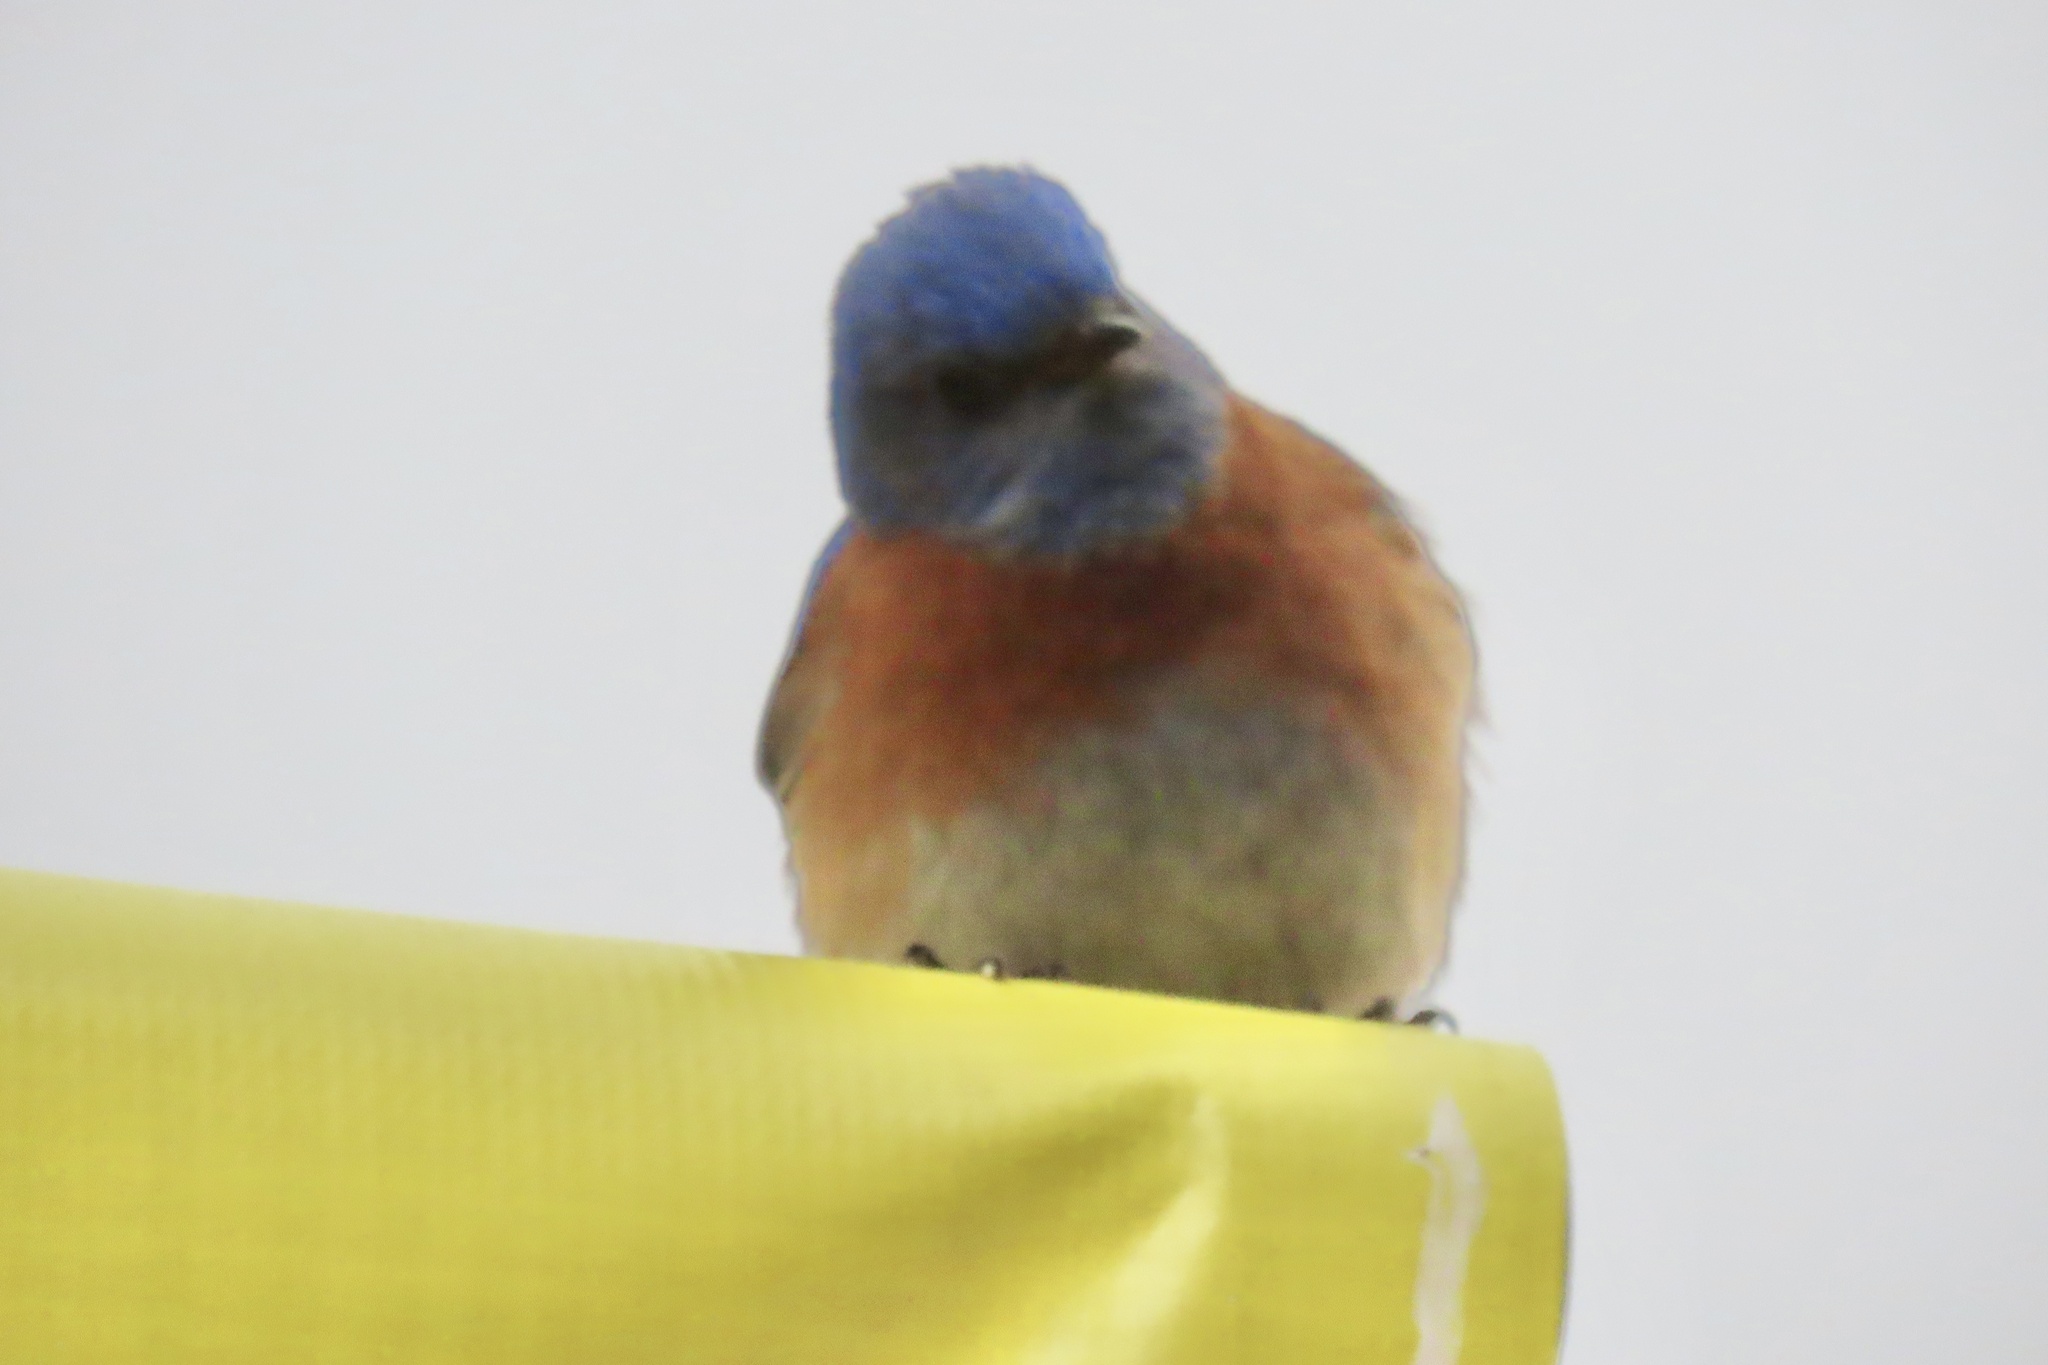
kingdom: Animalia
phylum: Chordata
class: Aves
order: Passeriformes
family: Turdidae
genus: Sialia
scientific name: Sialia mexicana
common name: Western bluebird
